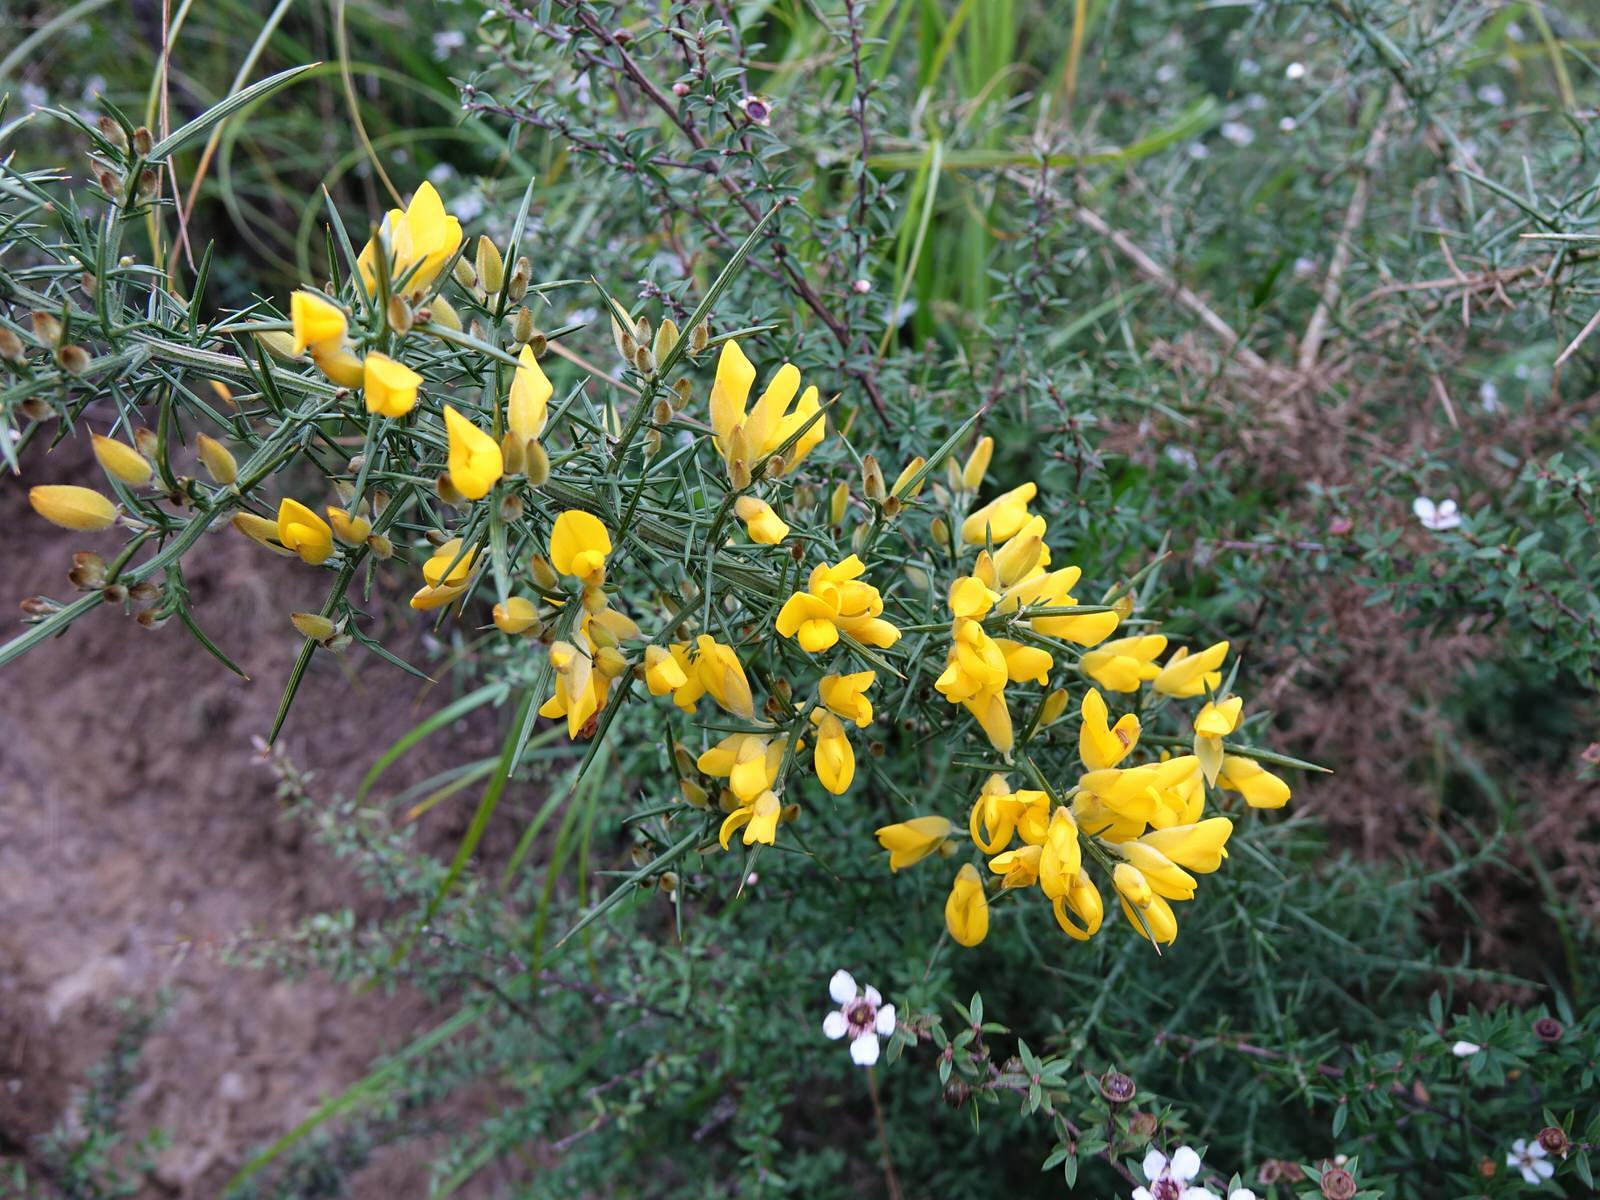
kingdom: Plantae
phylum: Tracheophyta
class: Magnoliopsida
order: Fabales
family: Fabaceae
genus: Ulex
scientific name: Ulex europaeus
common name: Common gorse
